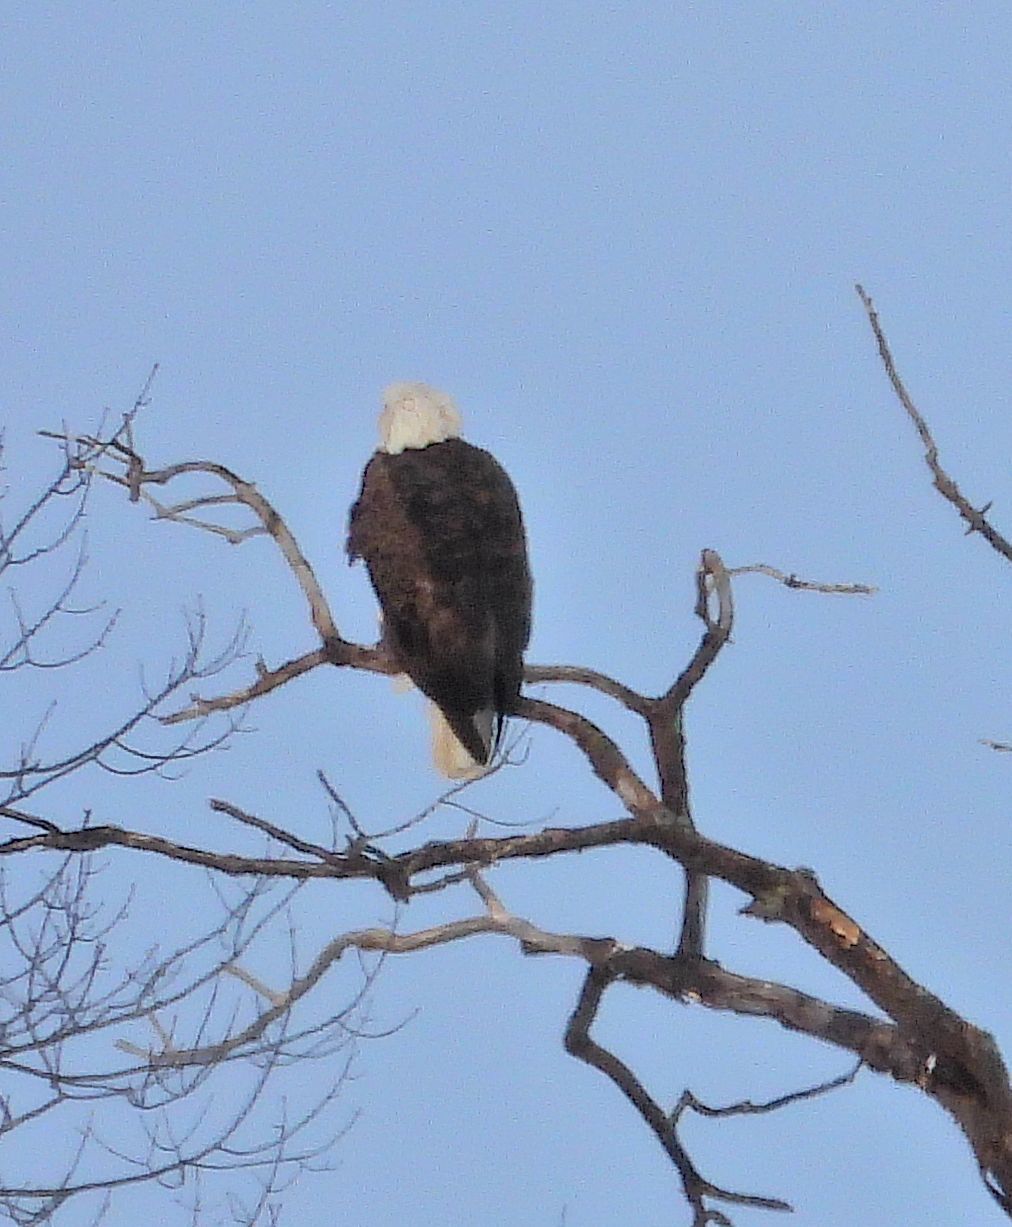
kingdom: Animalia
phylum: Chordata
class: Aves
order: Accipitriformes
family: Accipitridae
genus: Haliaeetus
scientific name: Haliaeetus leucocephalus
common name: Bald eagle
